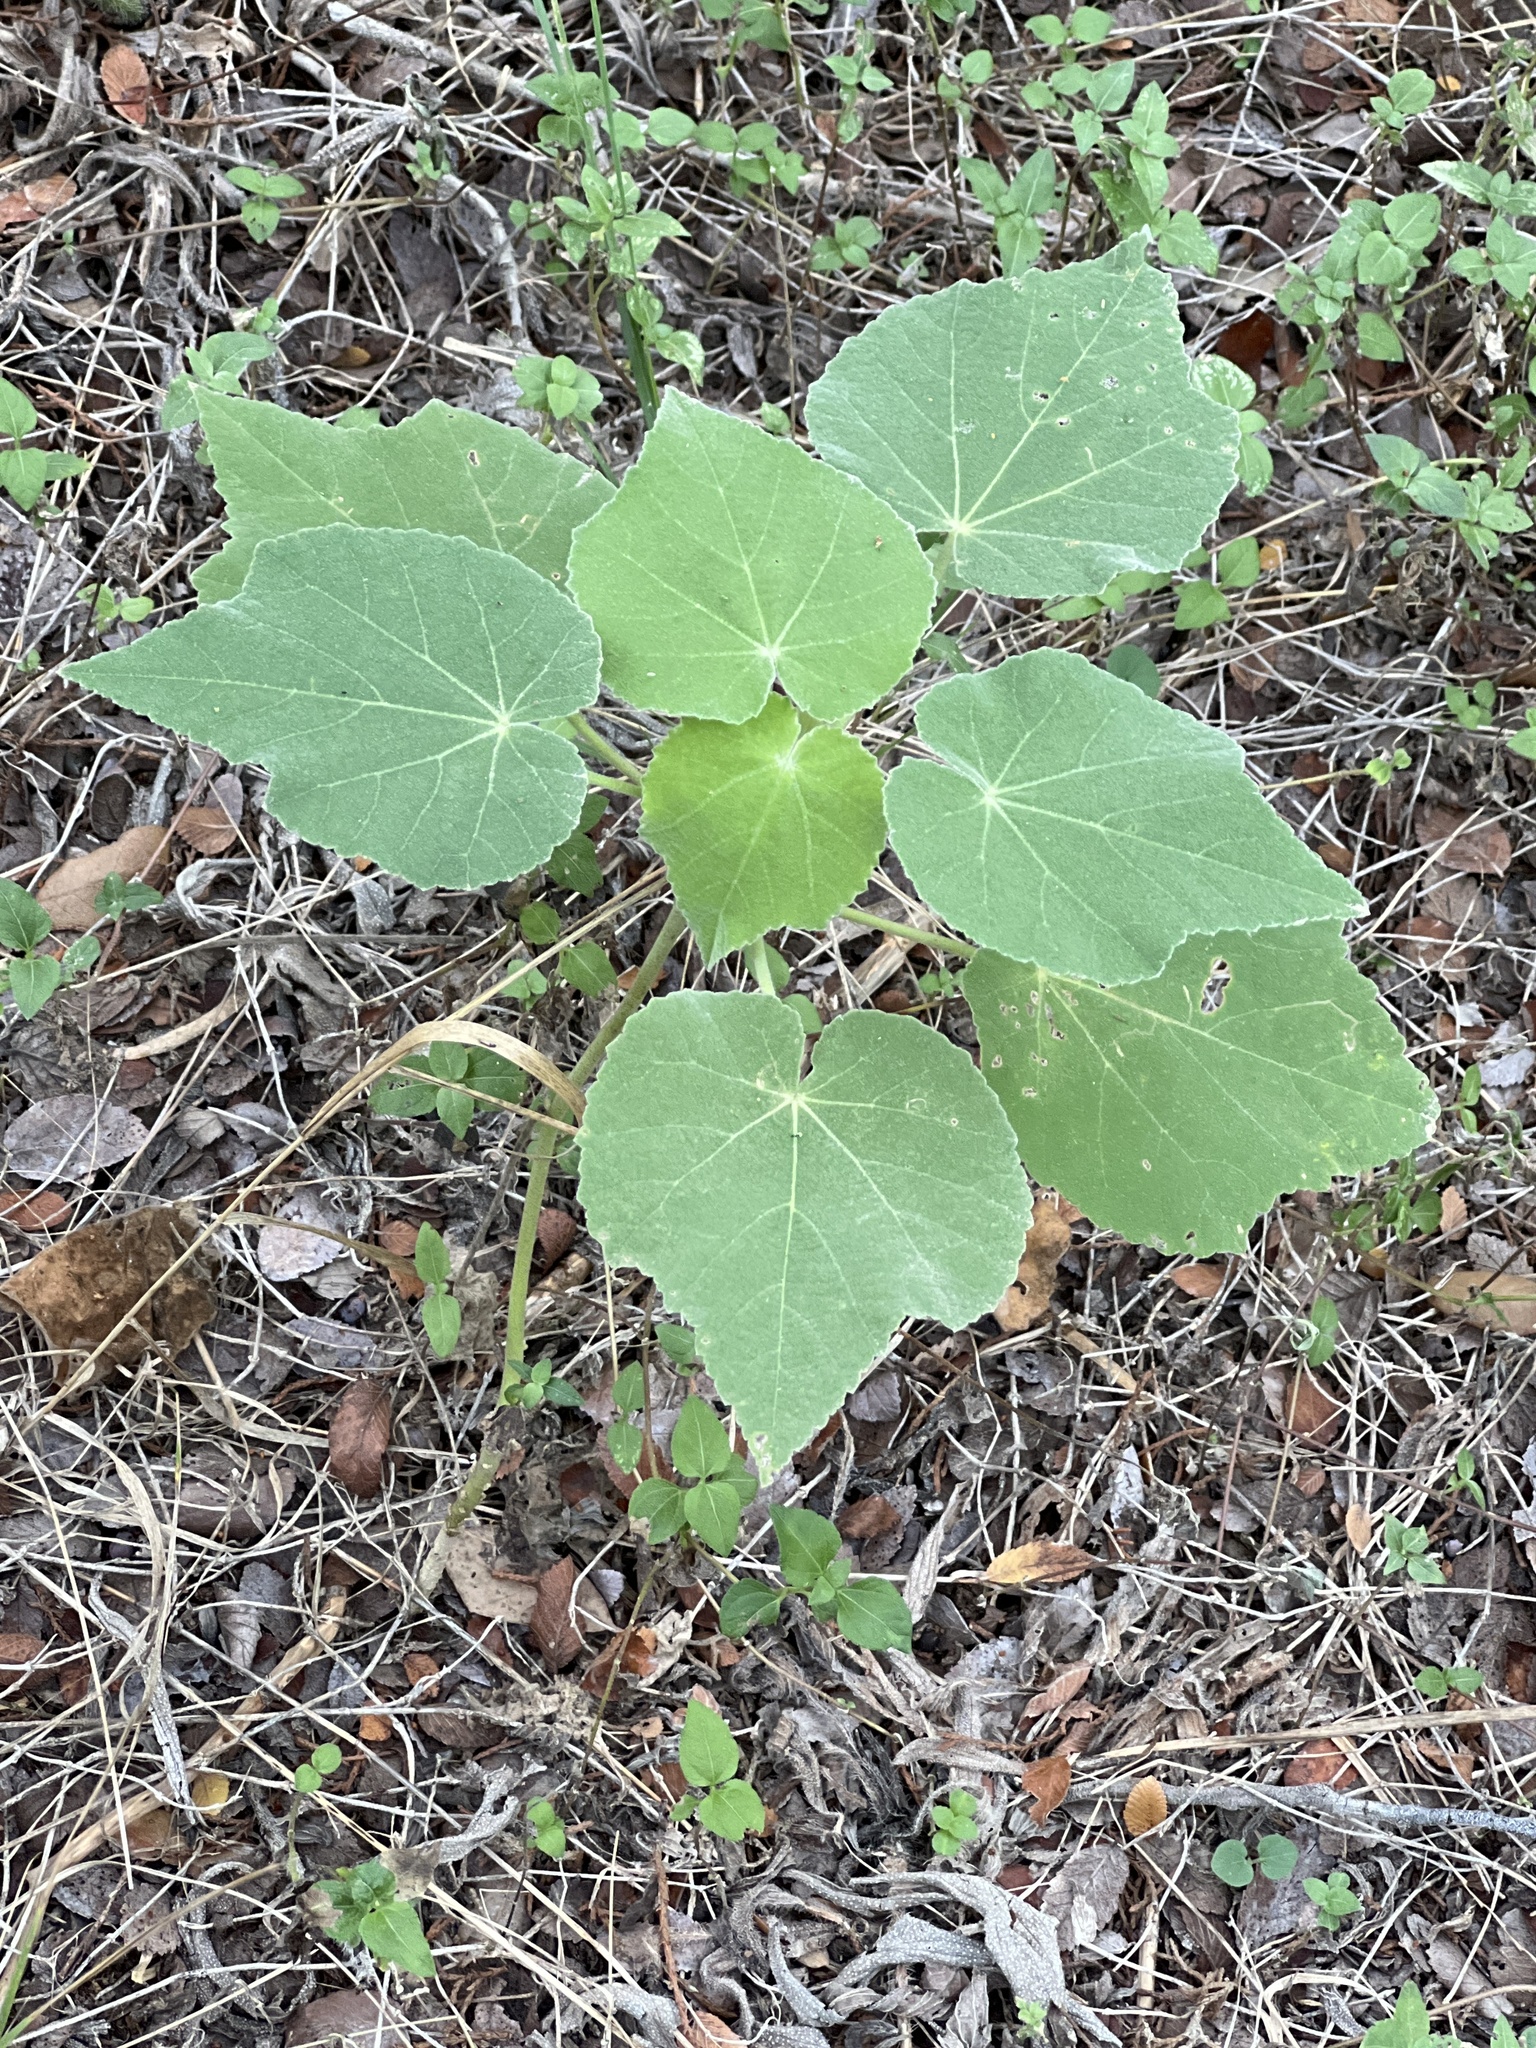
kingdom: Plantae
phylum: Tracheophyta
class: Magnoliopsida
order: Malvales
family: Malvaceae
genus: Allowissadula
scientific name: Allowissadula holosericea
